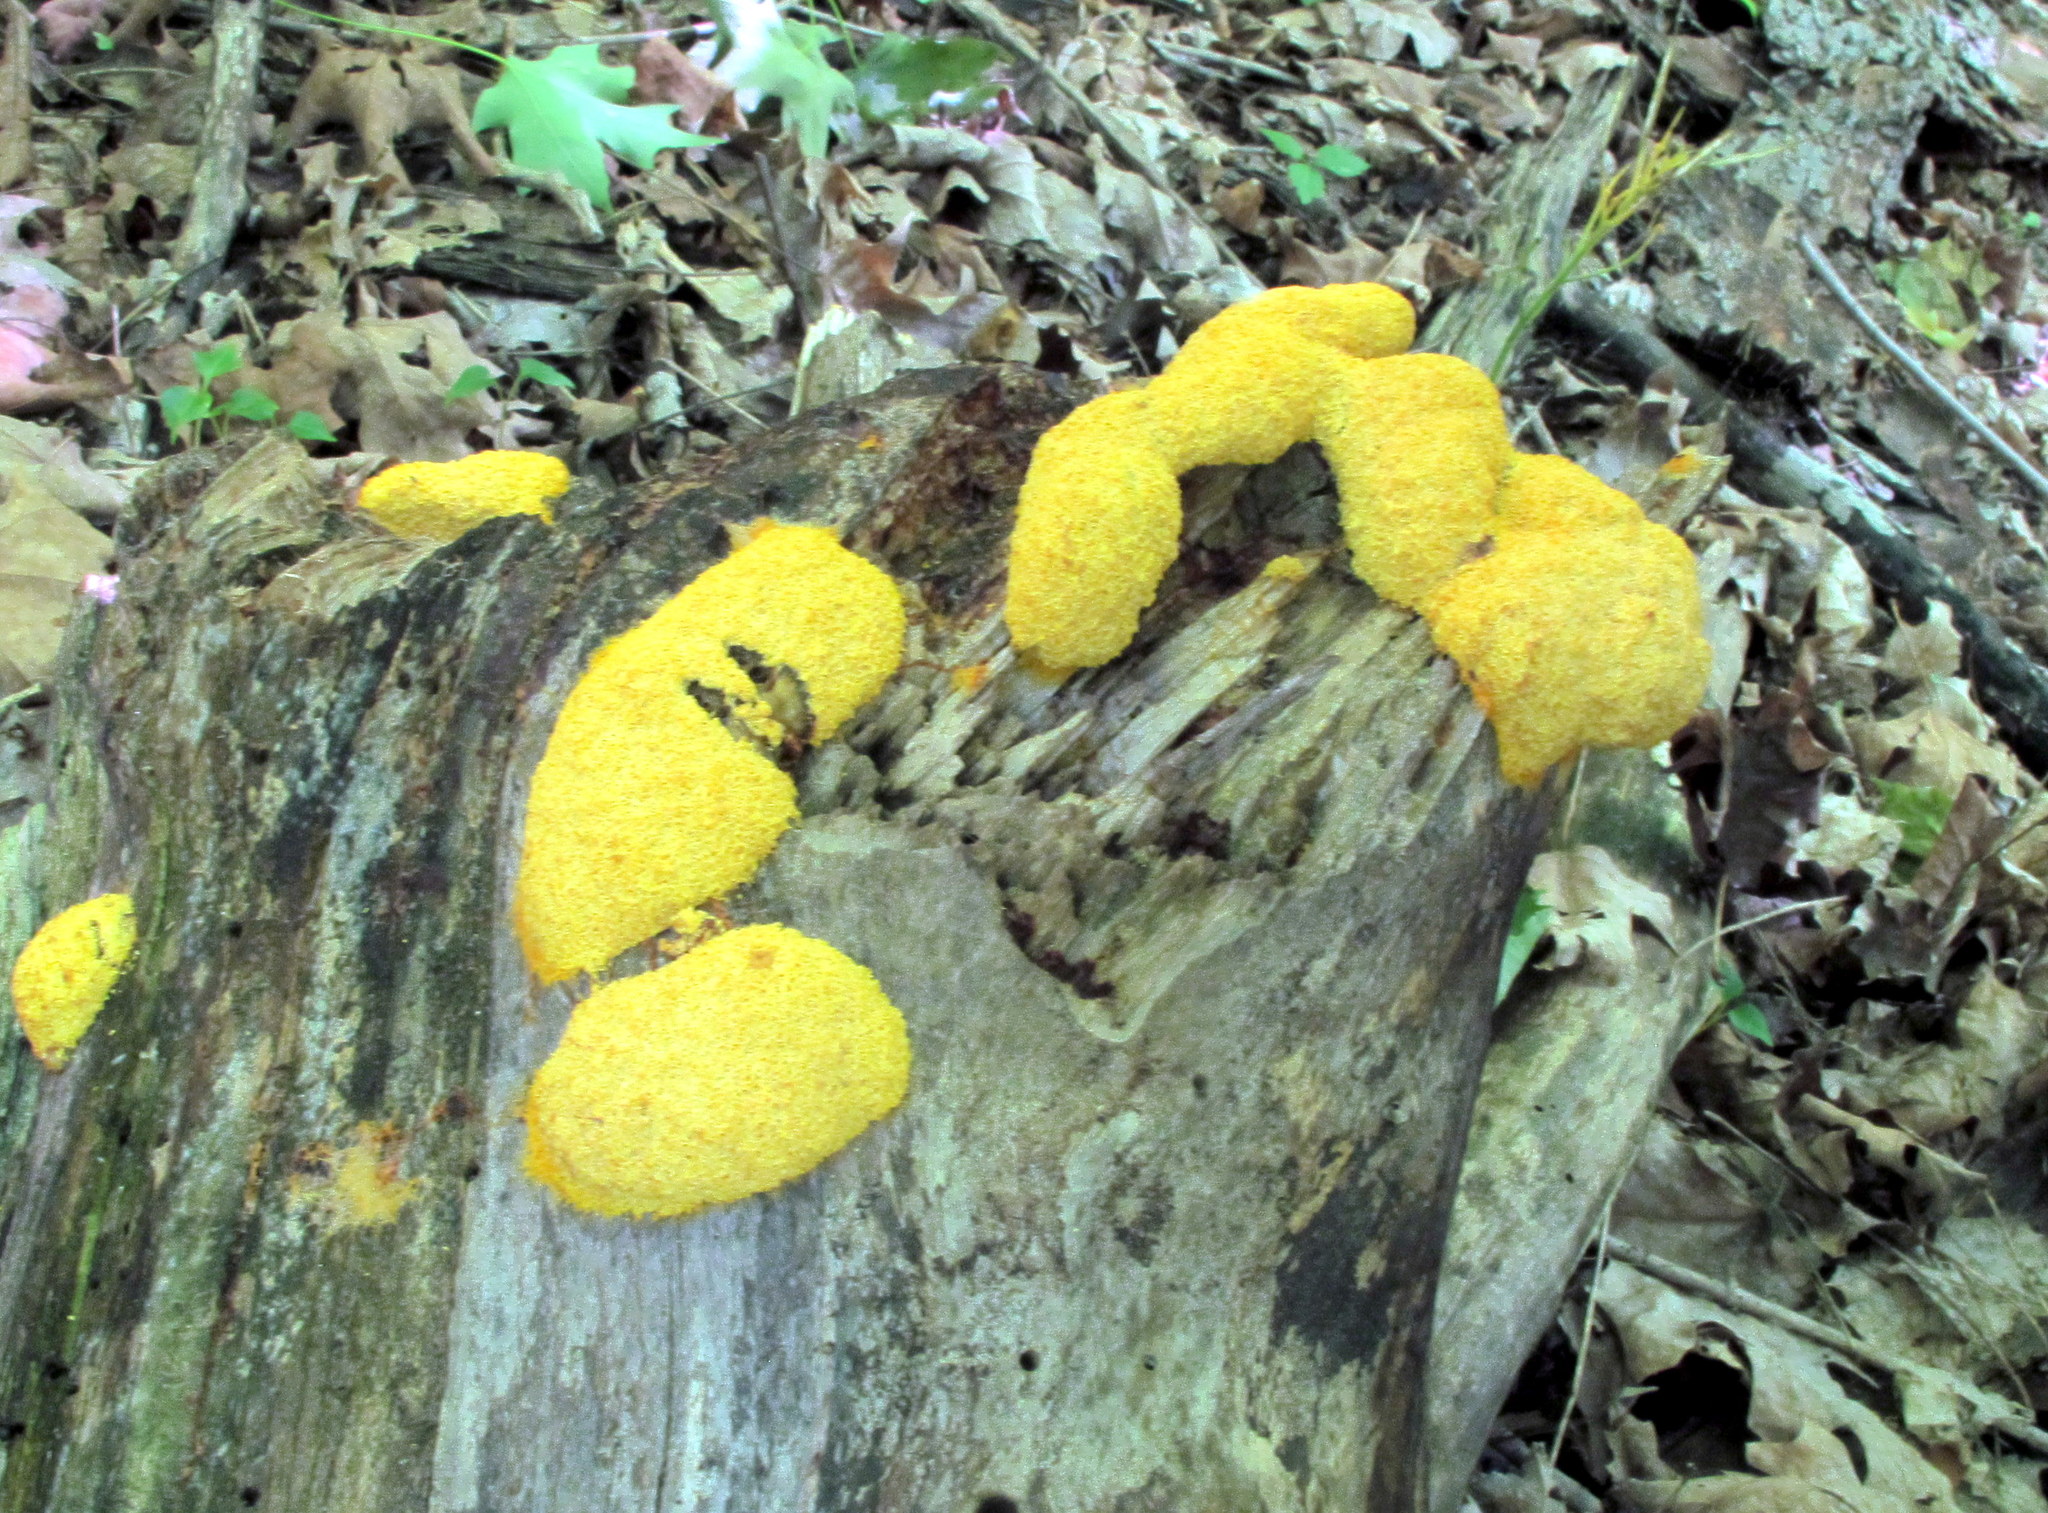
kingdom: Protozoa
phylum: Mycetozoa
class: Myxomycetes
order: Physarales
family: Physaraceae
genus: Fuligo
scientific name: Fuligo septica
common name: Dog vomit slime mold
